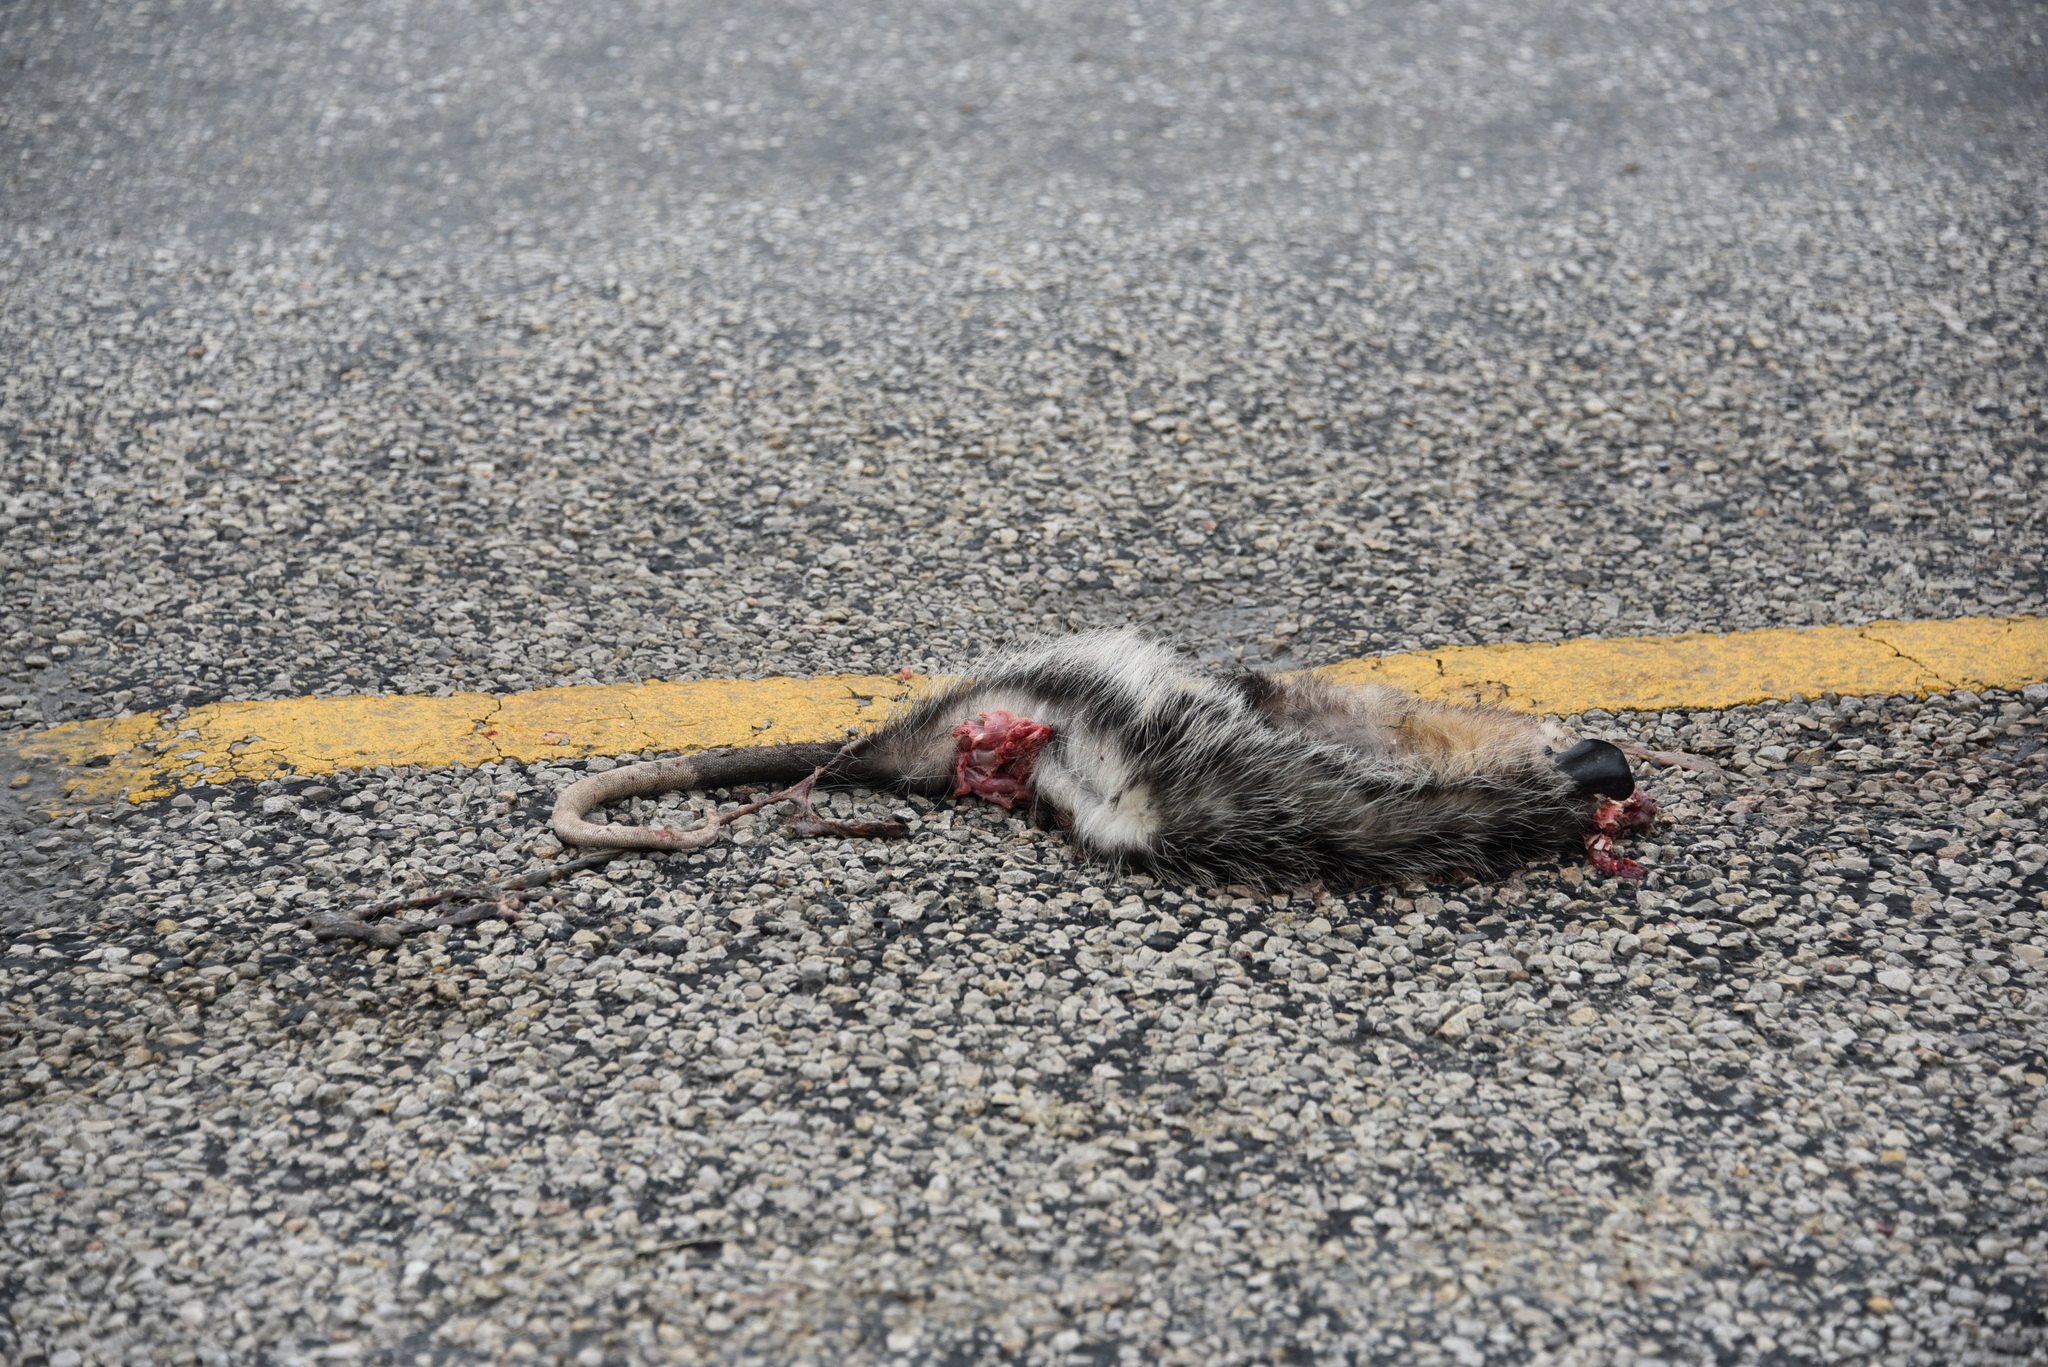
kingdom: Animalia
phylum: Chordata
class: Mammalia
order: Didelphimorphia
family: Didelphidae
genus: Didelphis
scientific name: Didelphis virginiana
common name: Virginia opossum
